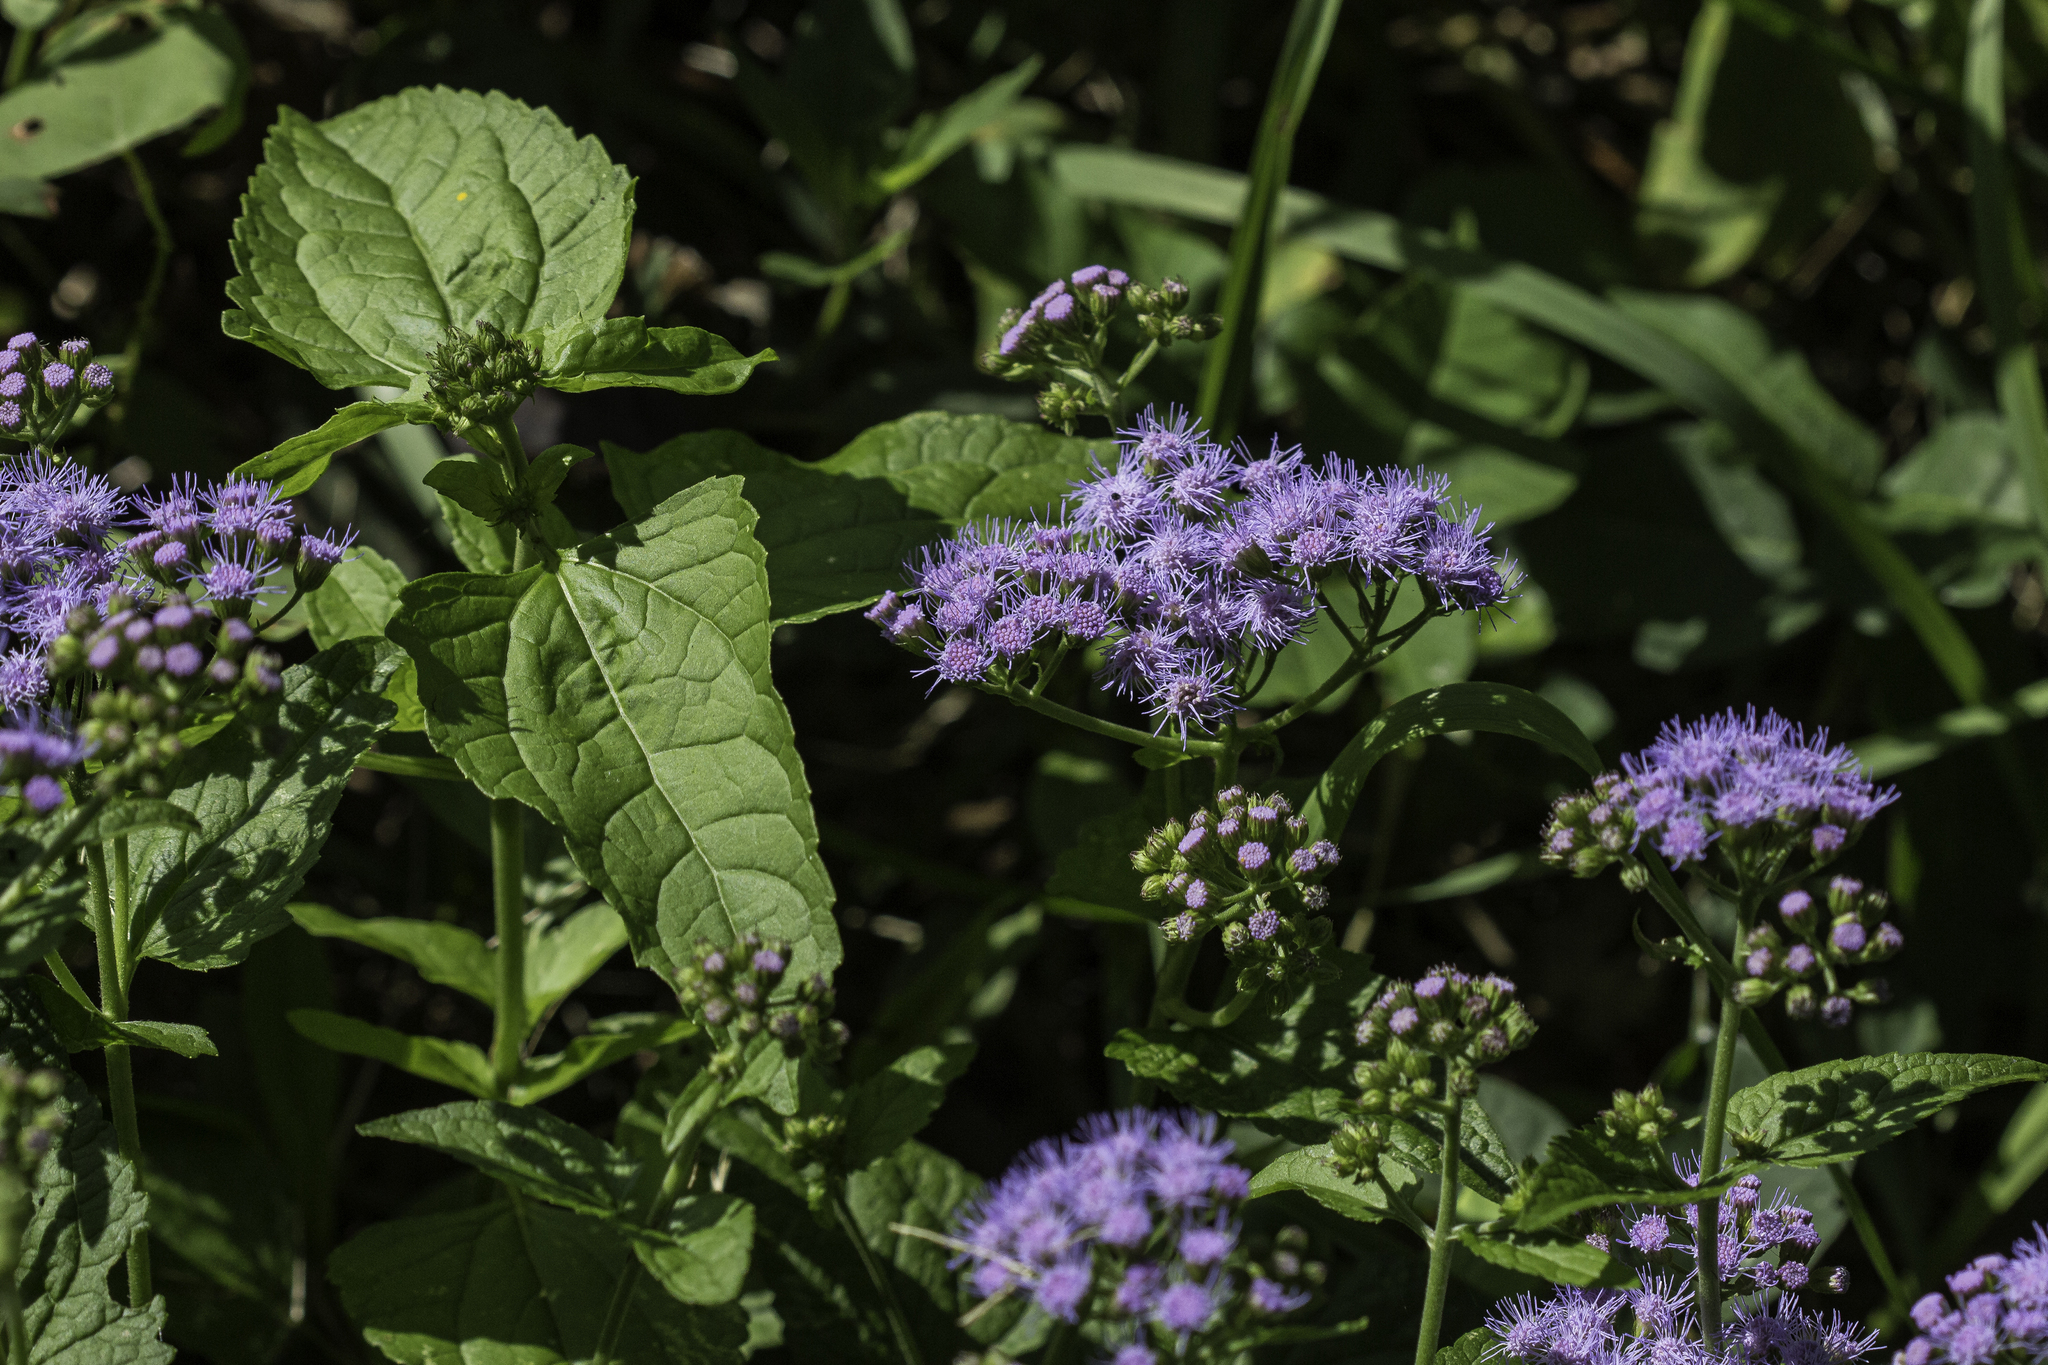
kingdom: Plantae
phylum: Tracheophyta
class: Magnoliopsida
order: Asterales
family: Asteraceae
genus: Conoclinium
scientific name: Conoclinium coelestinum
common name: Blue mistflower
